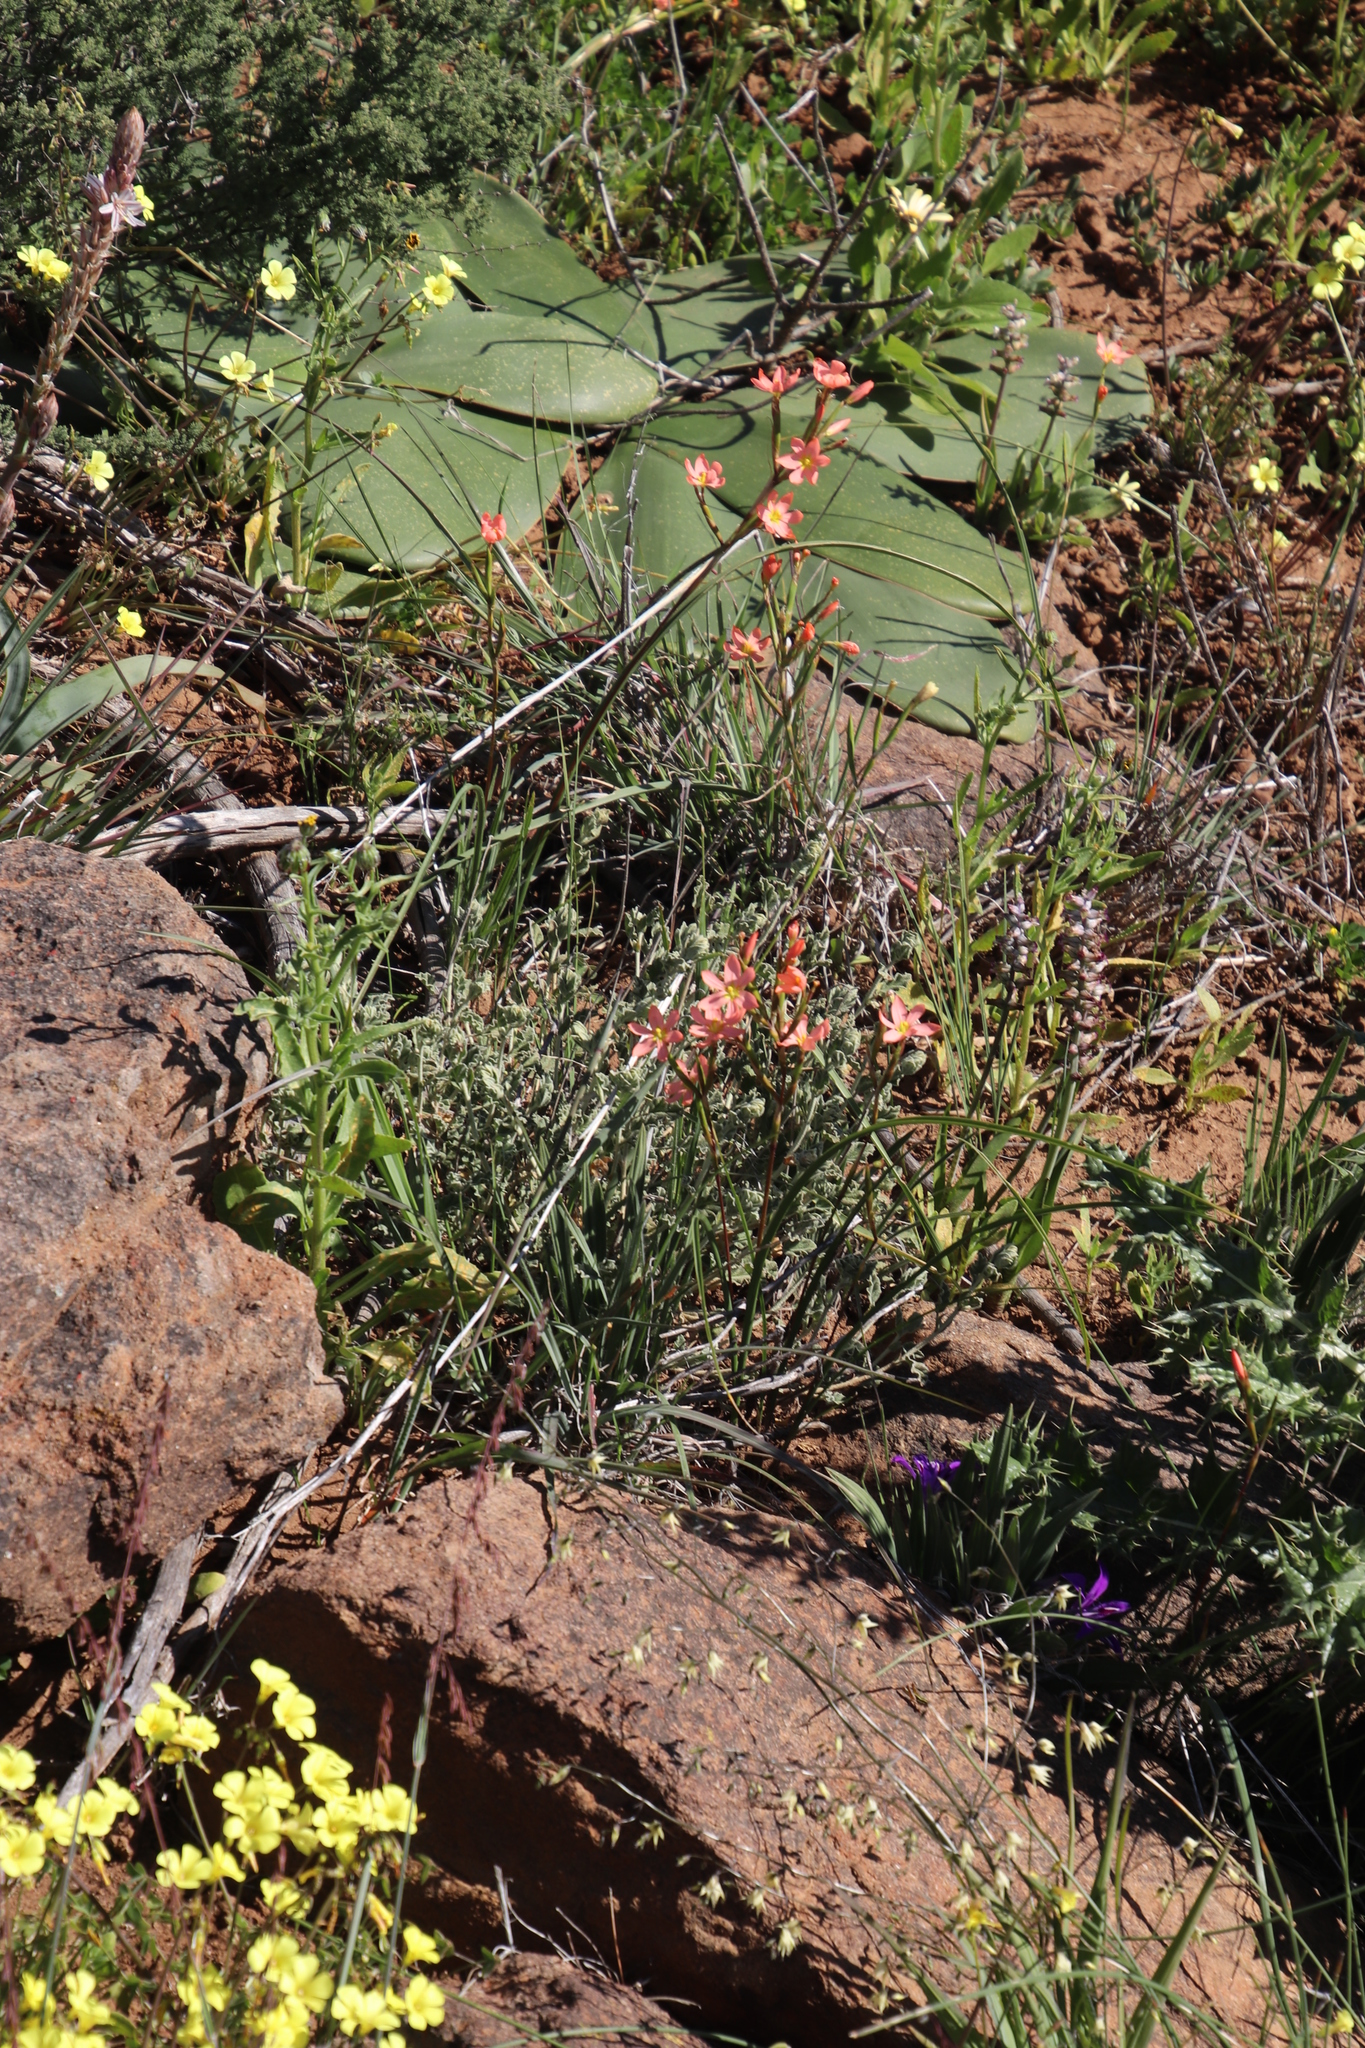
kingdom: Plantae
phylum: Tracheophyta
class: Liliopsida
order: Asparagales
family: Iridaceae
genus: Moraea
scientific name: Moraea miniata
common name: Two-leaf cape-tulip
